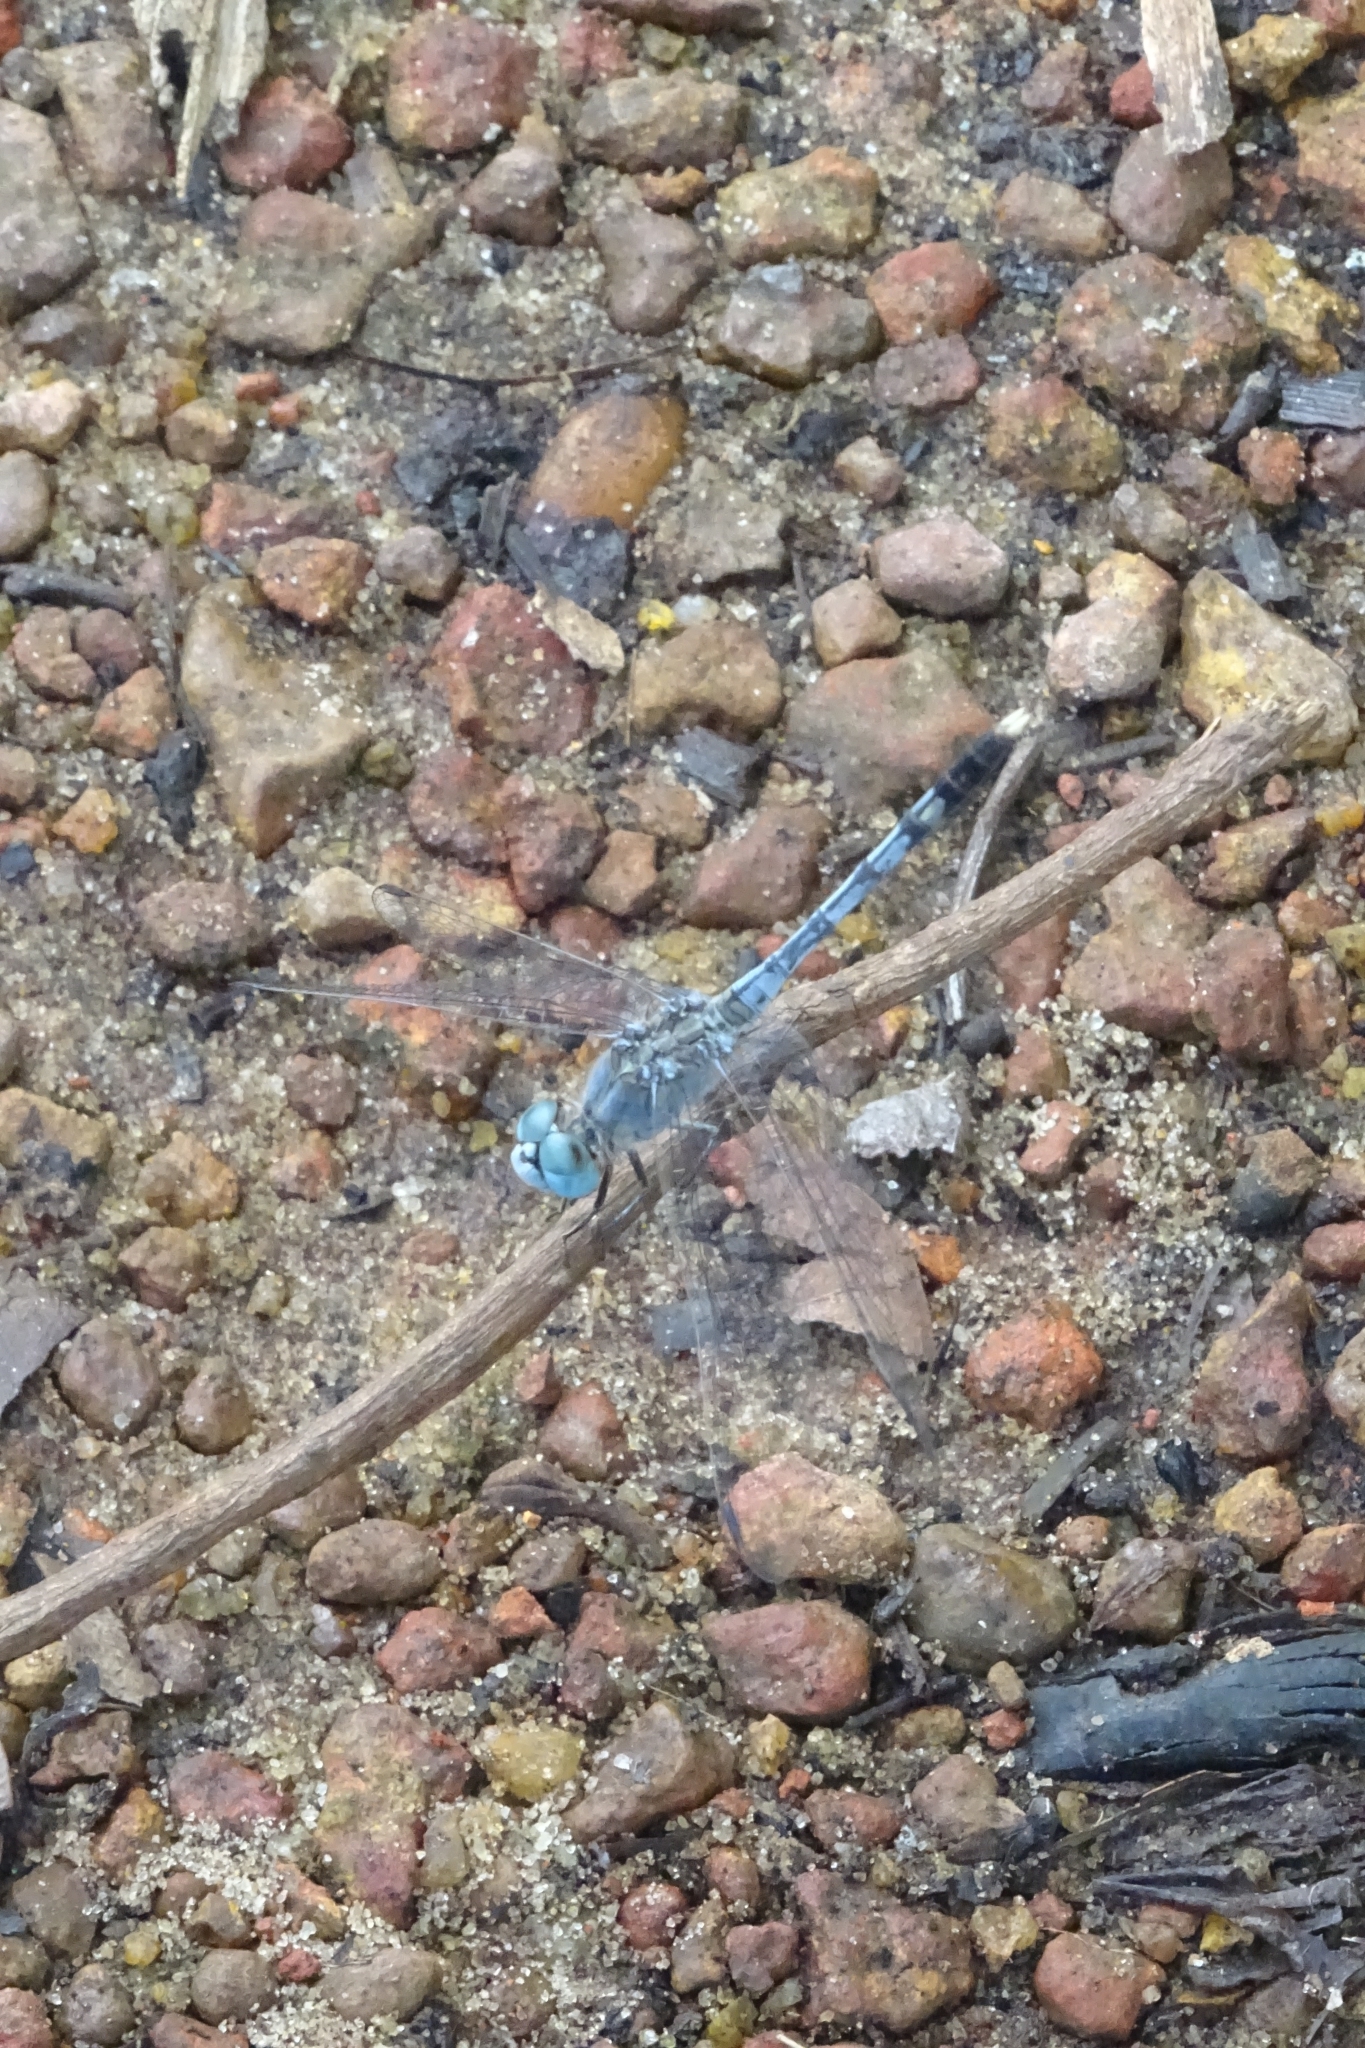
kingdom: Animalia
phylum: Arthropoda
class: Insecta
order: Odonata
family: Libellulidae
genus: Diplacodes
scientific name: Diplacodes trivialis
